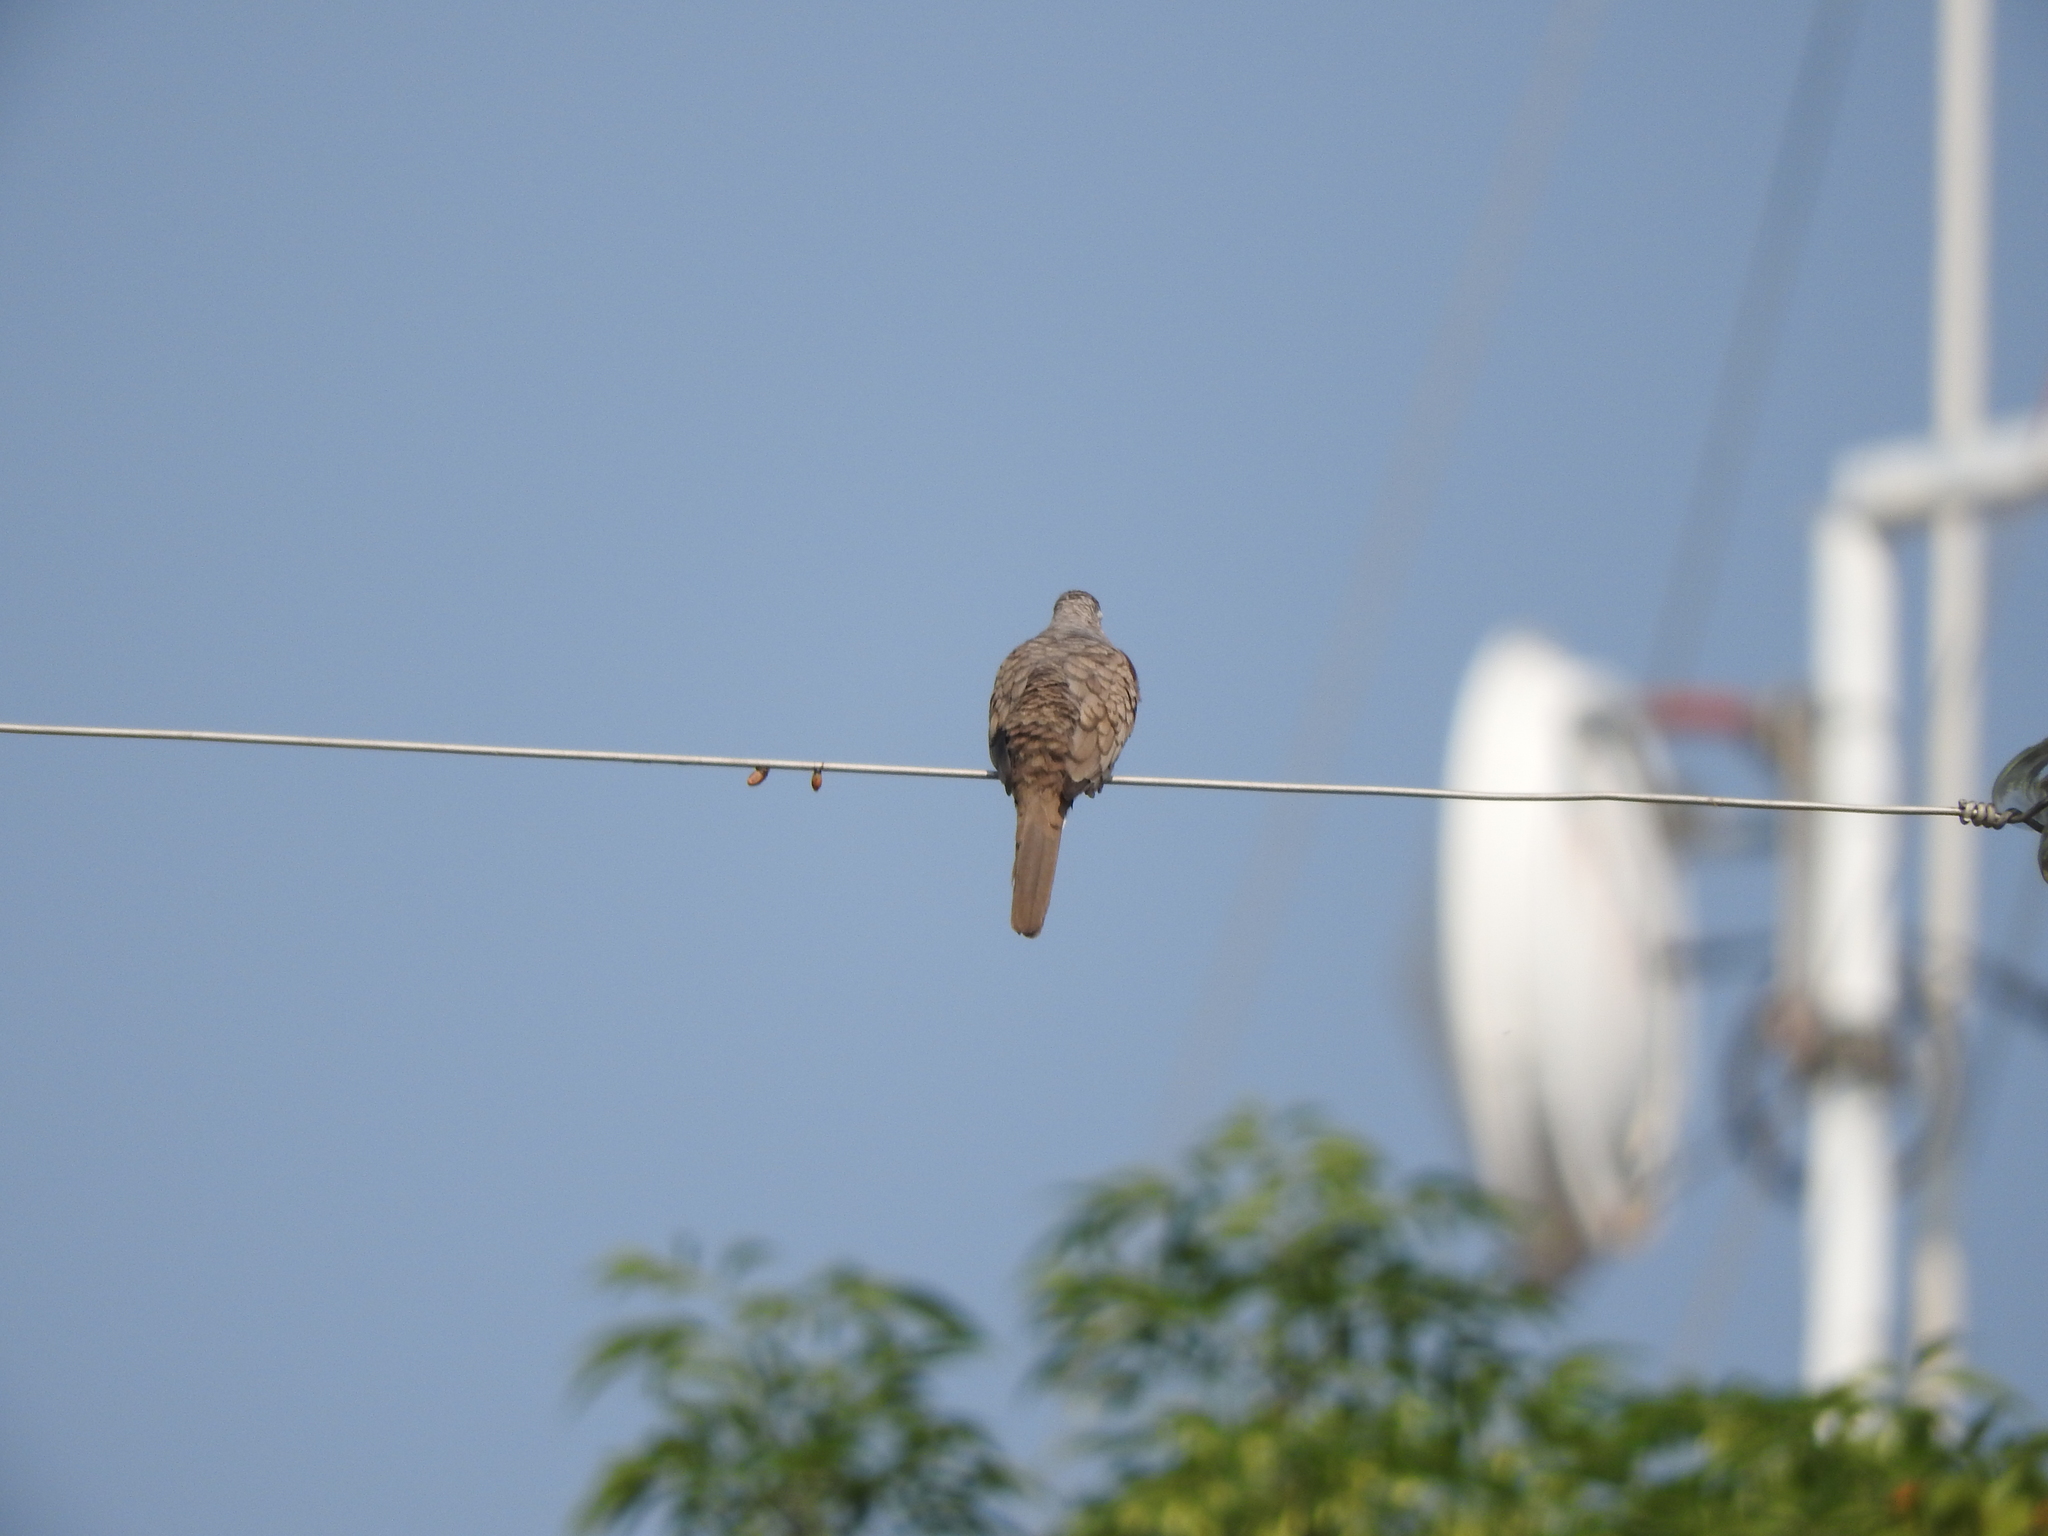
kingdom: Animalia
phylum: Chordata
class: Aves
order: Columbiformes
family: Columbidae
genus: Columbina
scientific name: Columbina inca
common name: Inca dove
